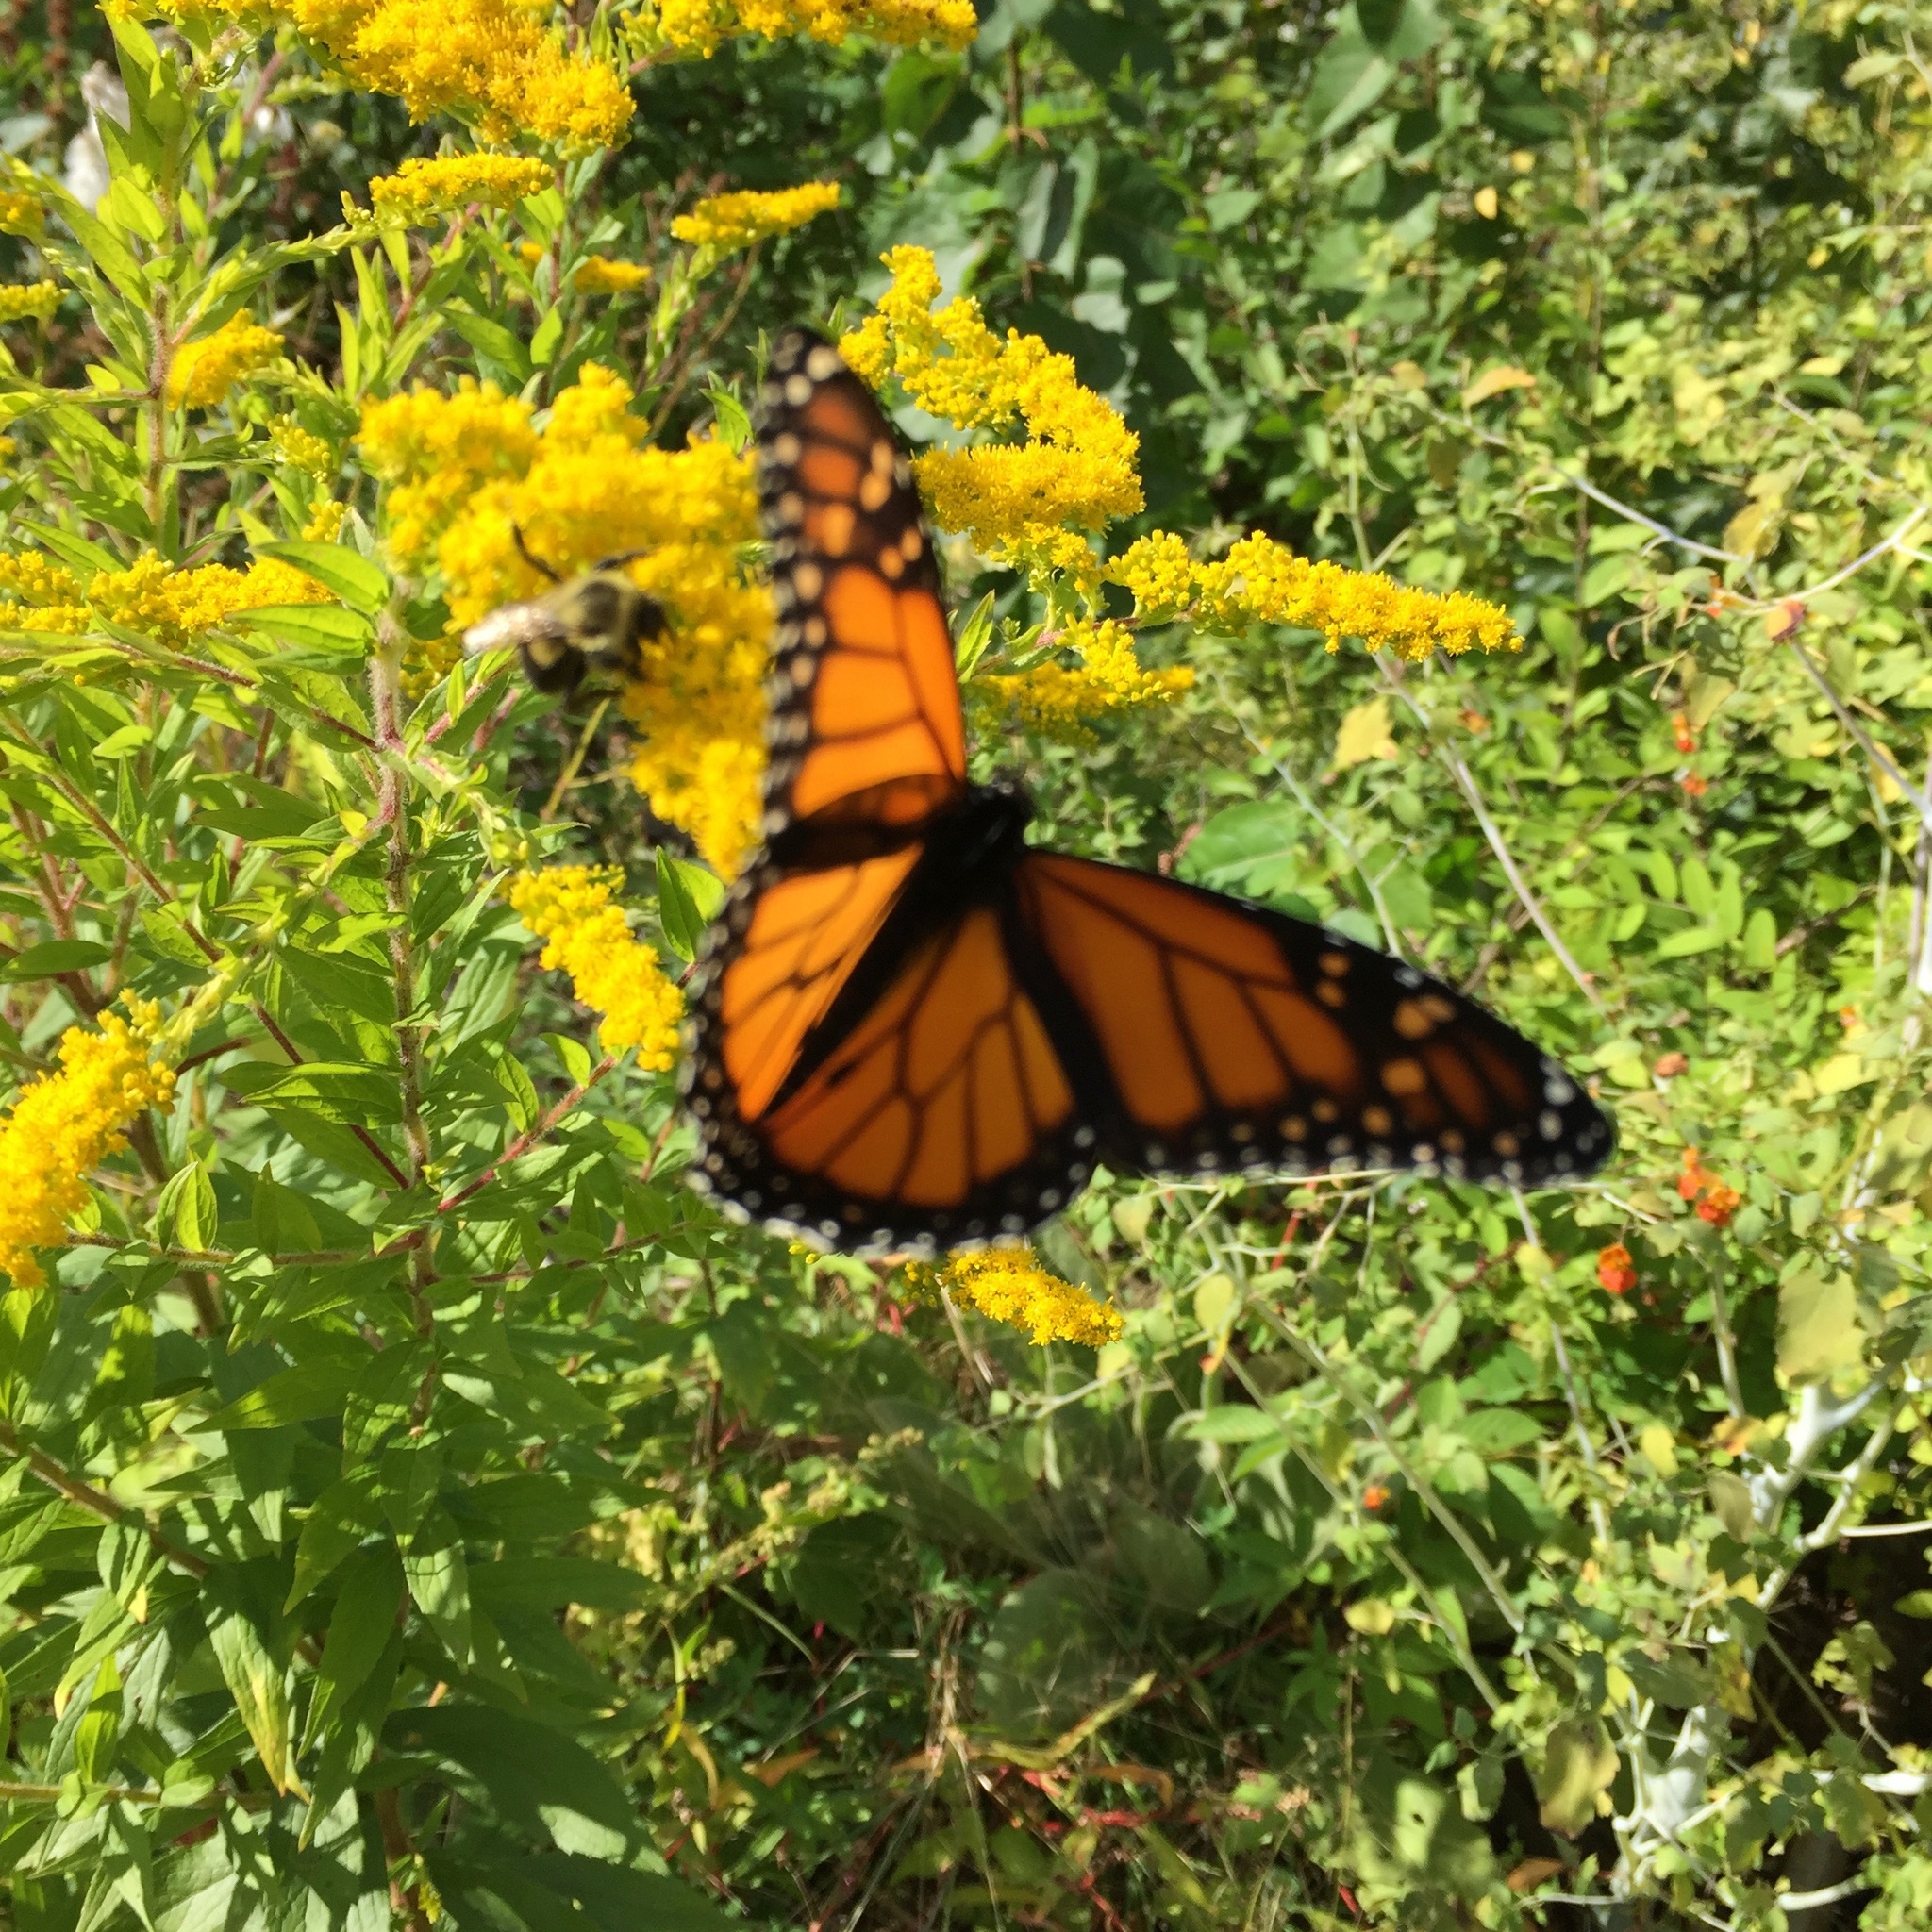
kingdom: Animalia
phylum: Arthropoda
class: Insecta
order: Lepidoptera
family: Nymphalidae
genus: Danaus
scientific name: Danaus plexippus
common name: Monarch
